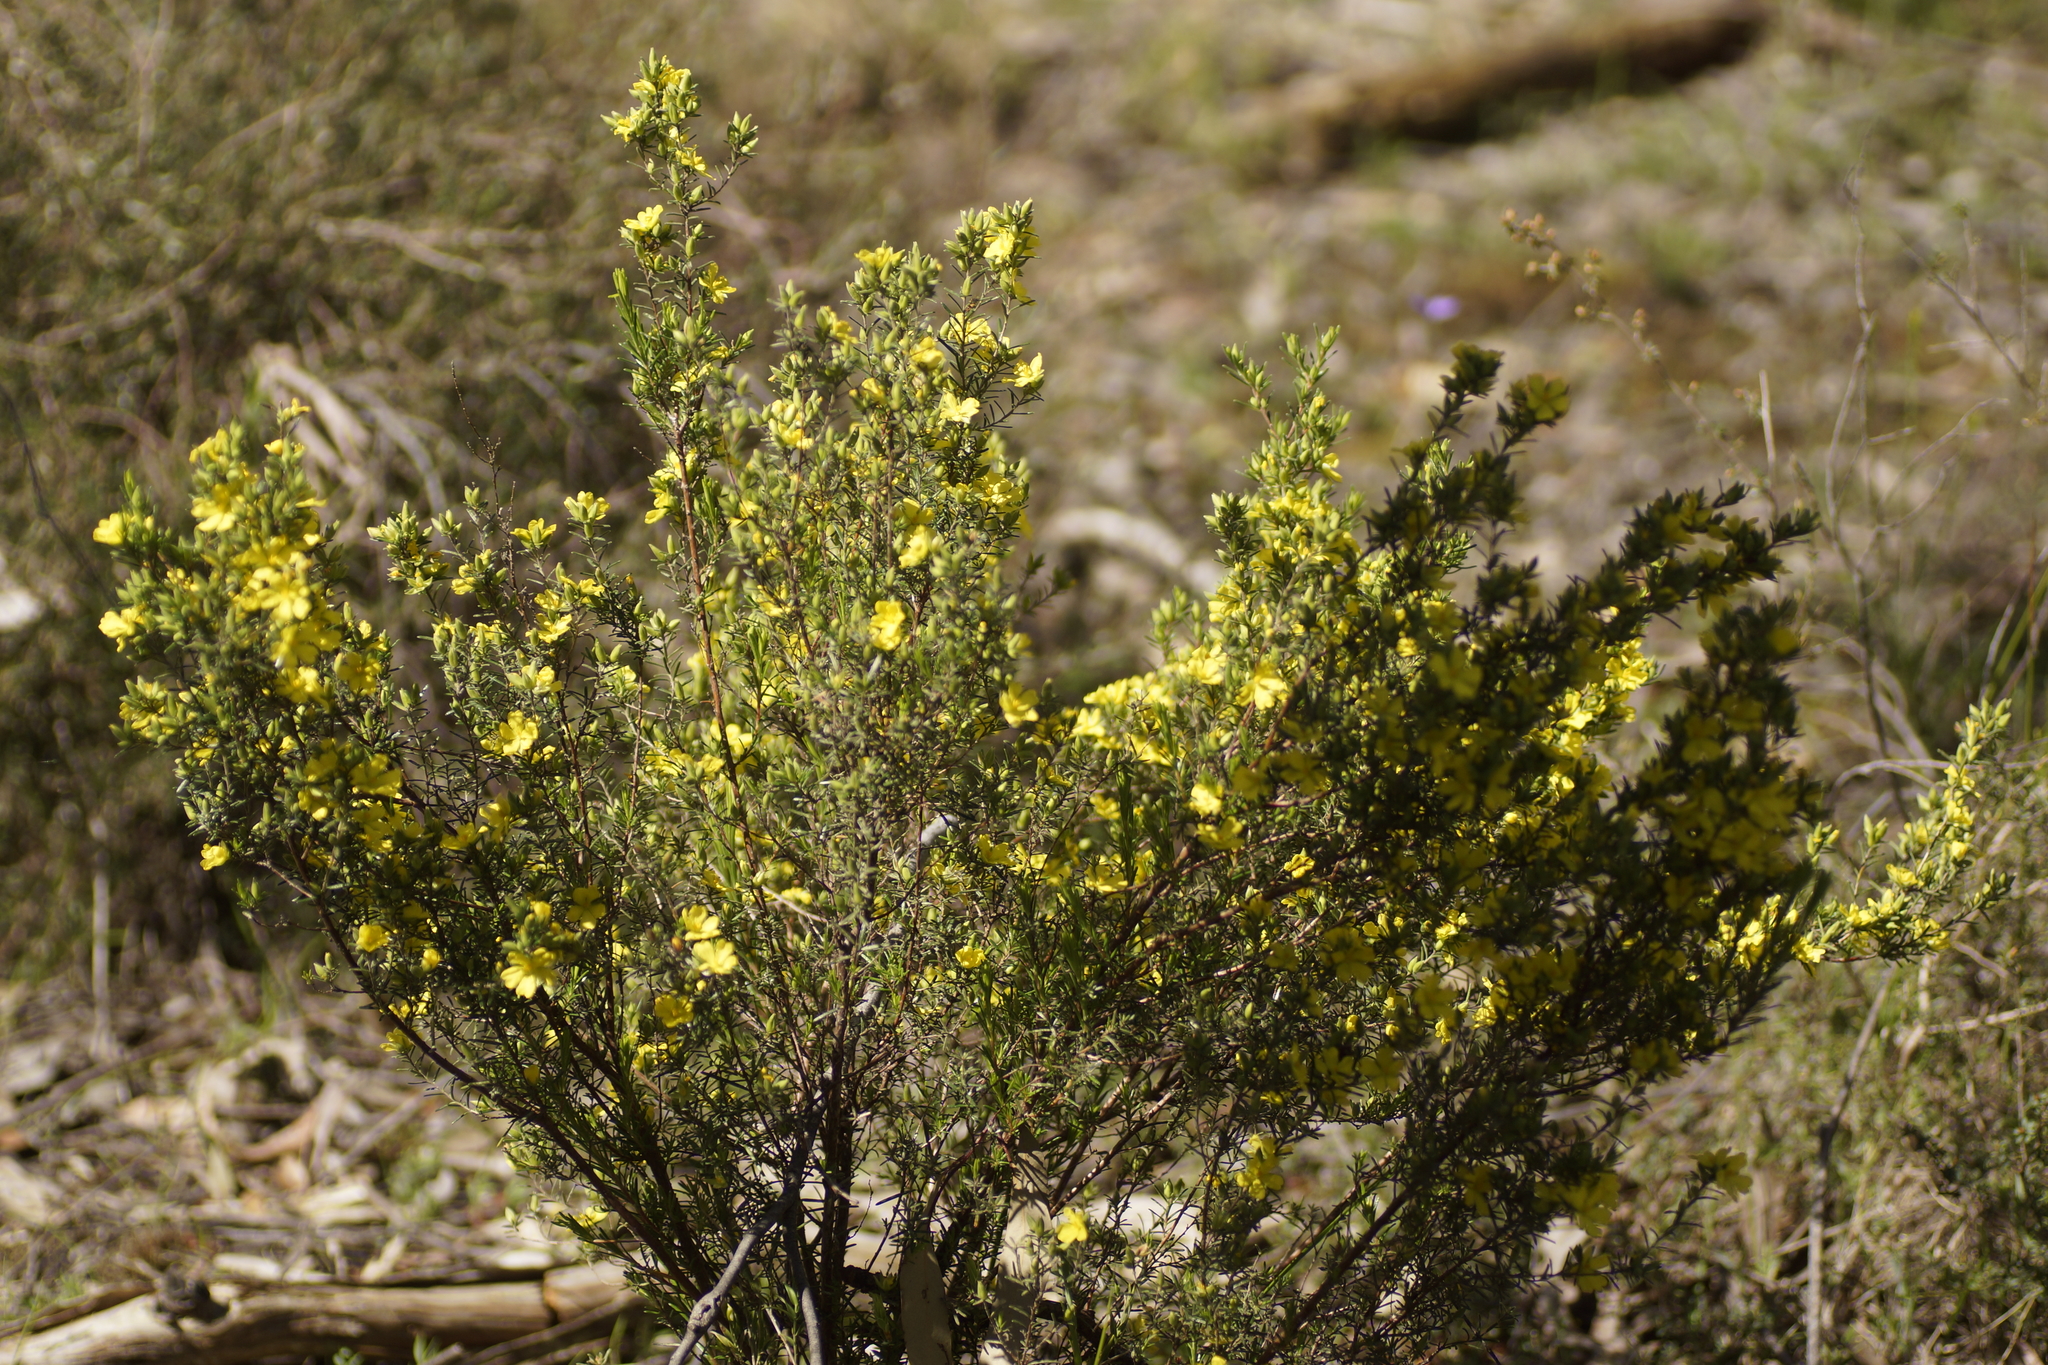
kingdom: Plantae
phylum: Tracheophyta
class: Magnoliopsida
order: Dilleniales
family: Dilleniaceae
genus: Hibbertia
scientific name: Hibbertia riparia
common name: Erect guinea-flower
